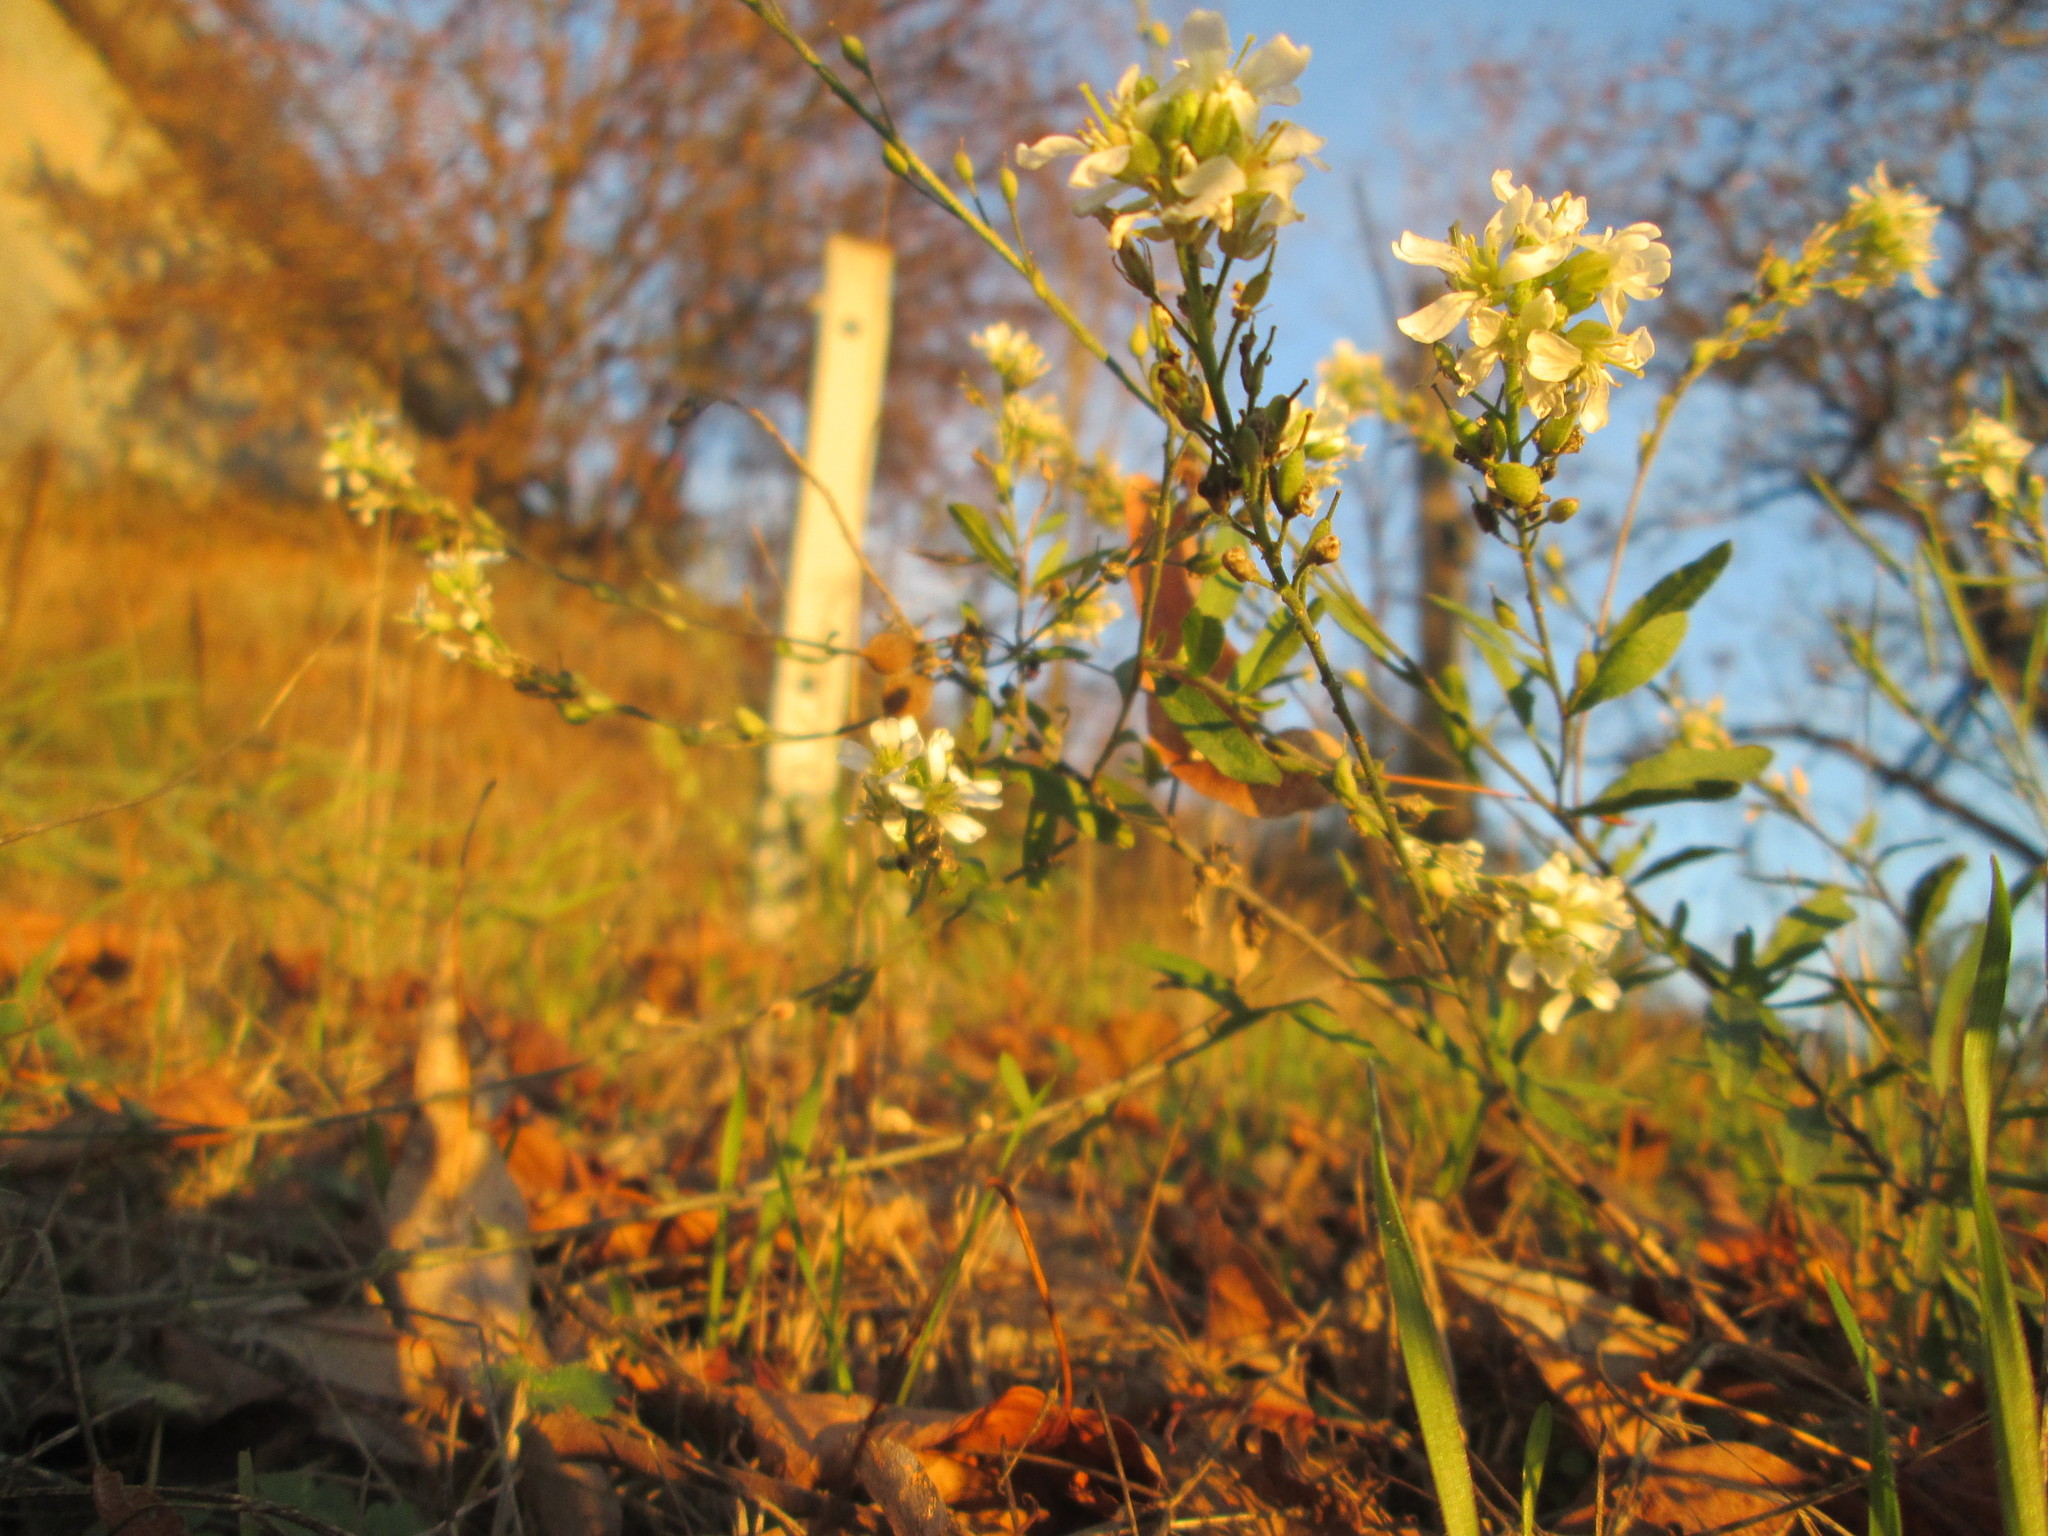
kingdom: Plantae
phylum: Tracheophyta
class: Magnoliopsida
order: Brassicales
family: Brassicaceae
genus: Berteroa
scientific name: Berteroa incana
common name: Hoary alison
